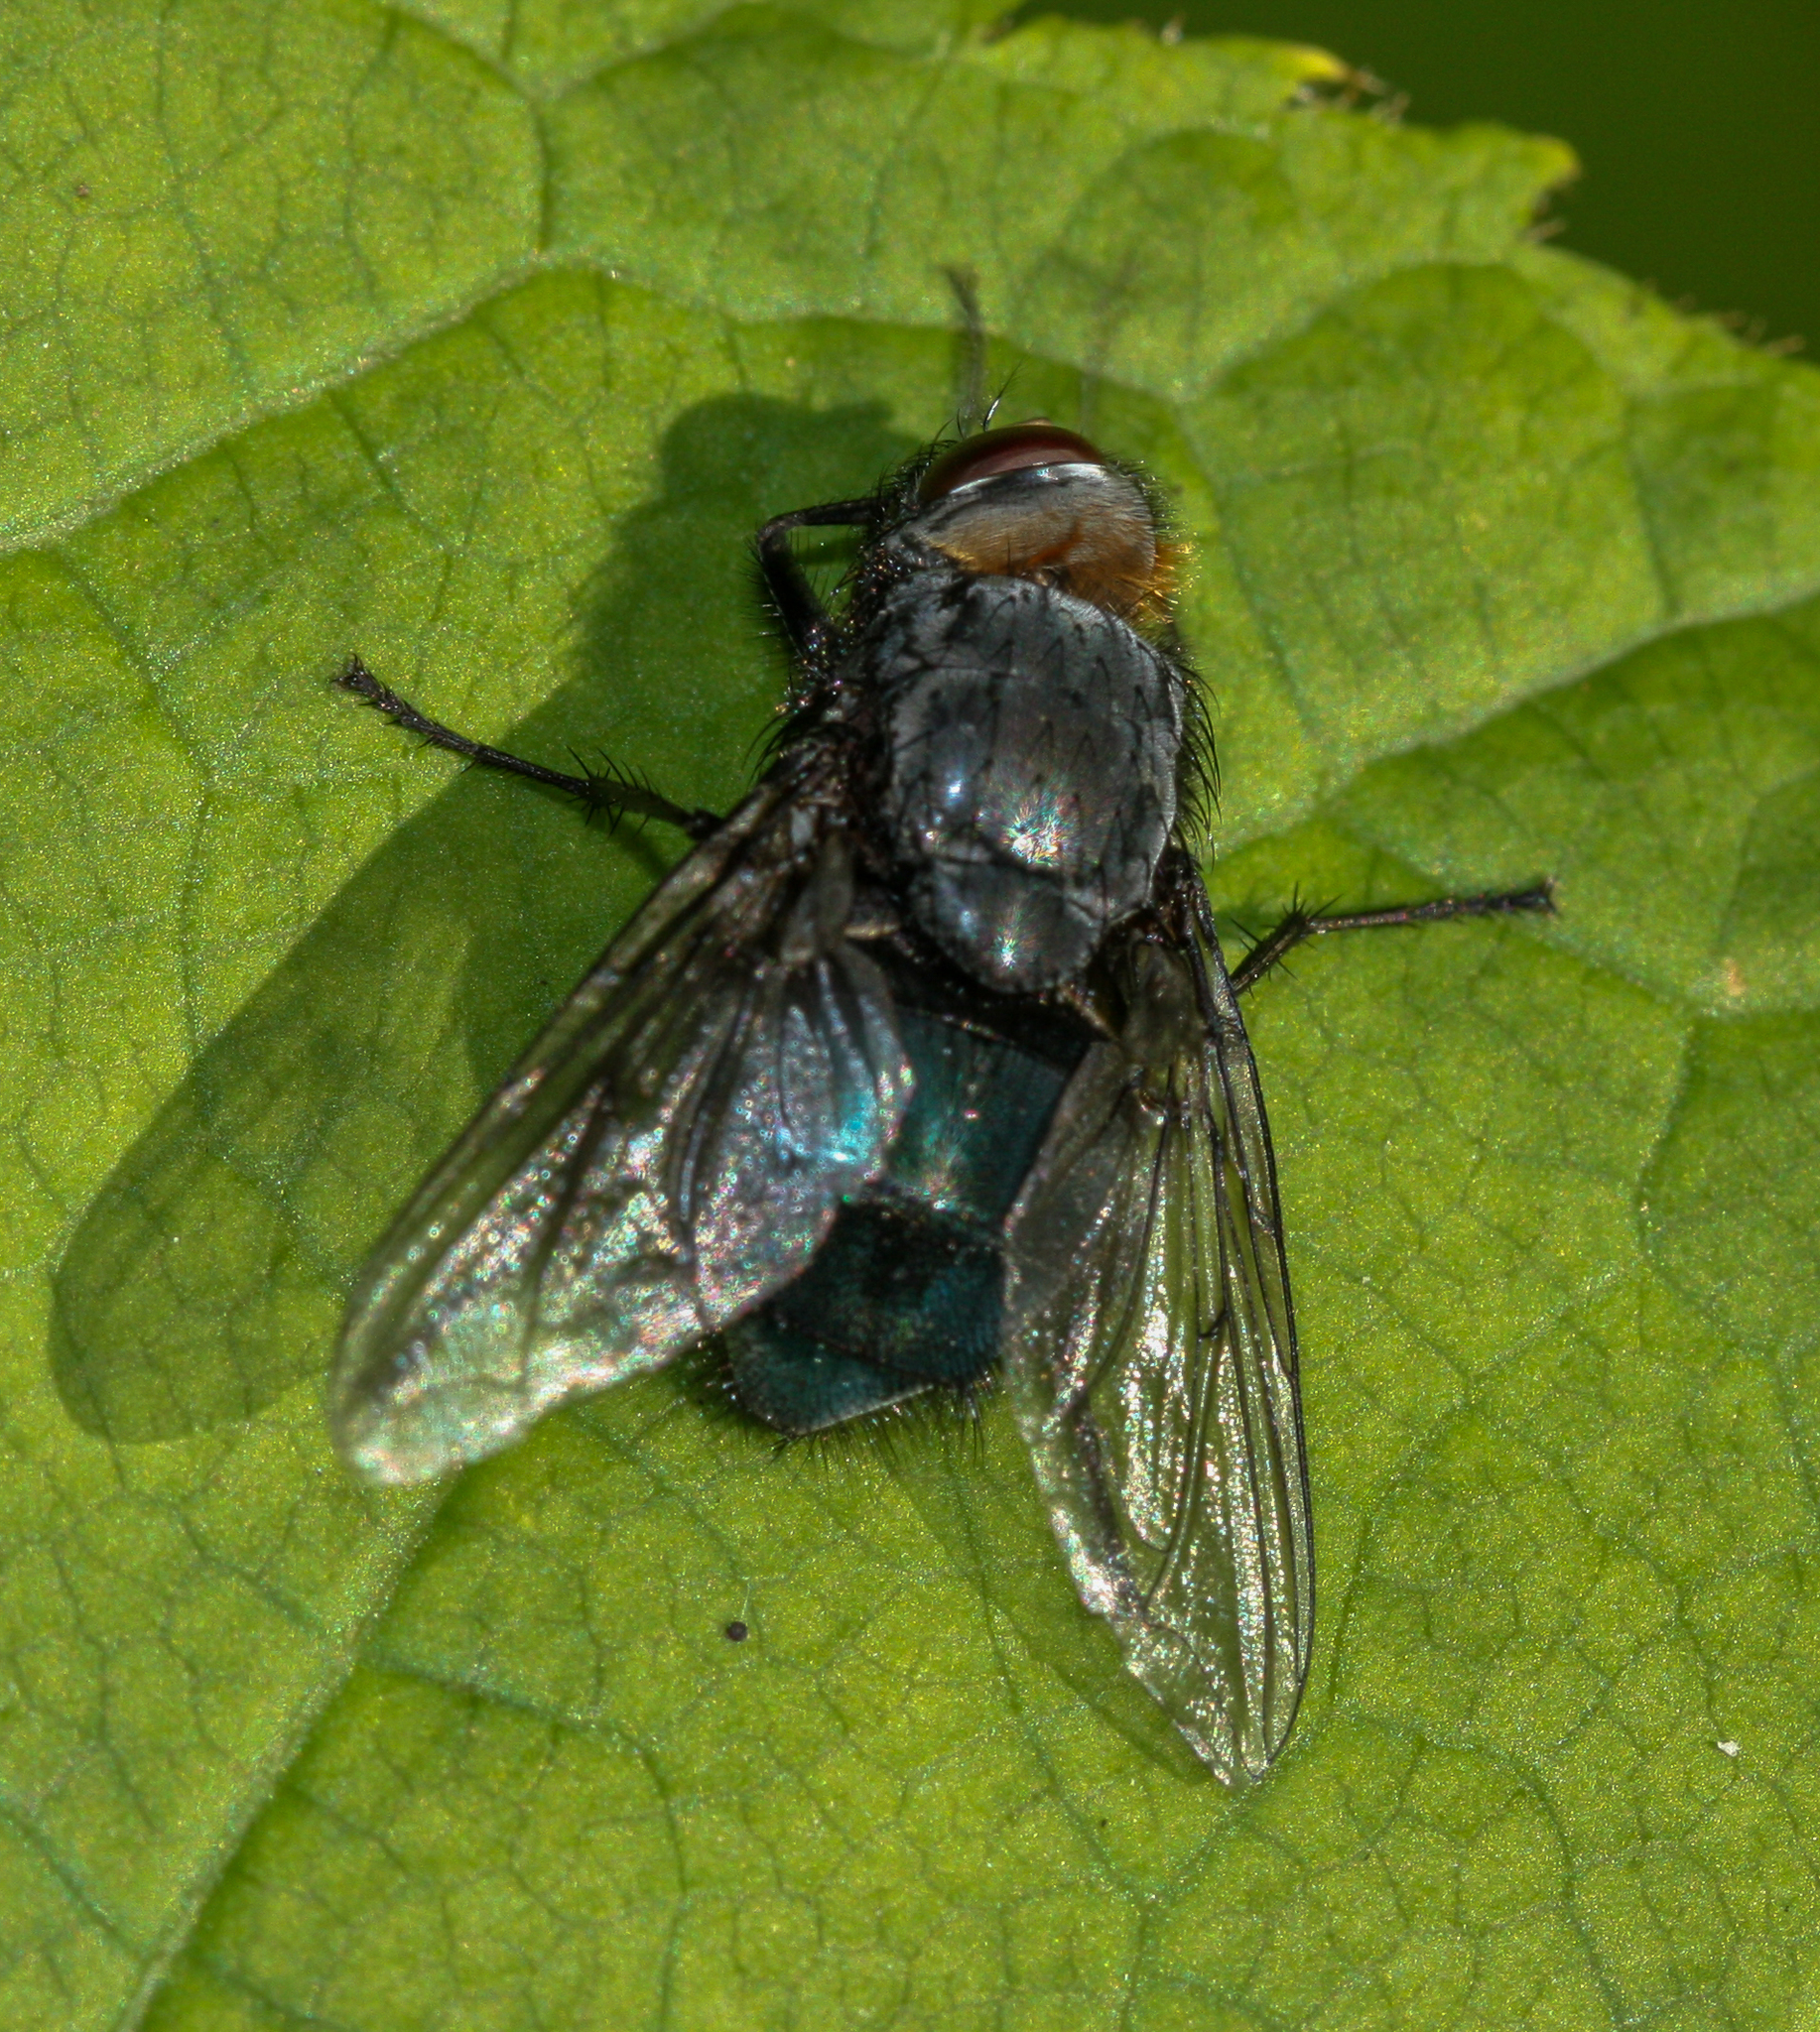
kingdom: Animalia
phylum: Arthropoda
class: Insecta
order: Diptera
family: Calliphoridae
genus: Calliphora
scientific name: Calliphora vomitoria
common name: Blue bottle fly
